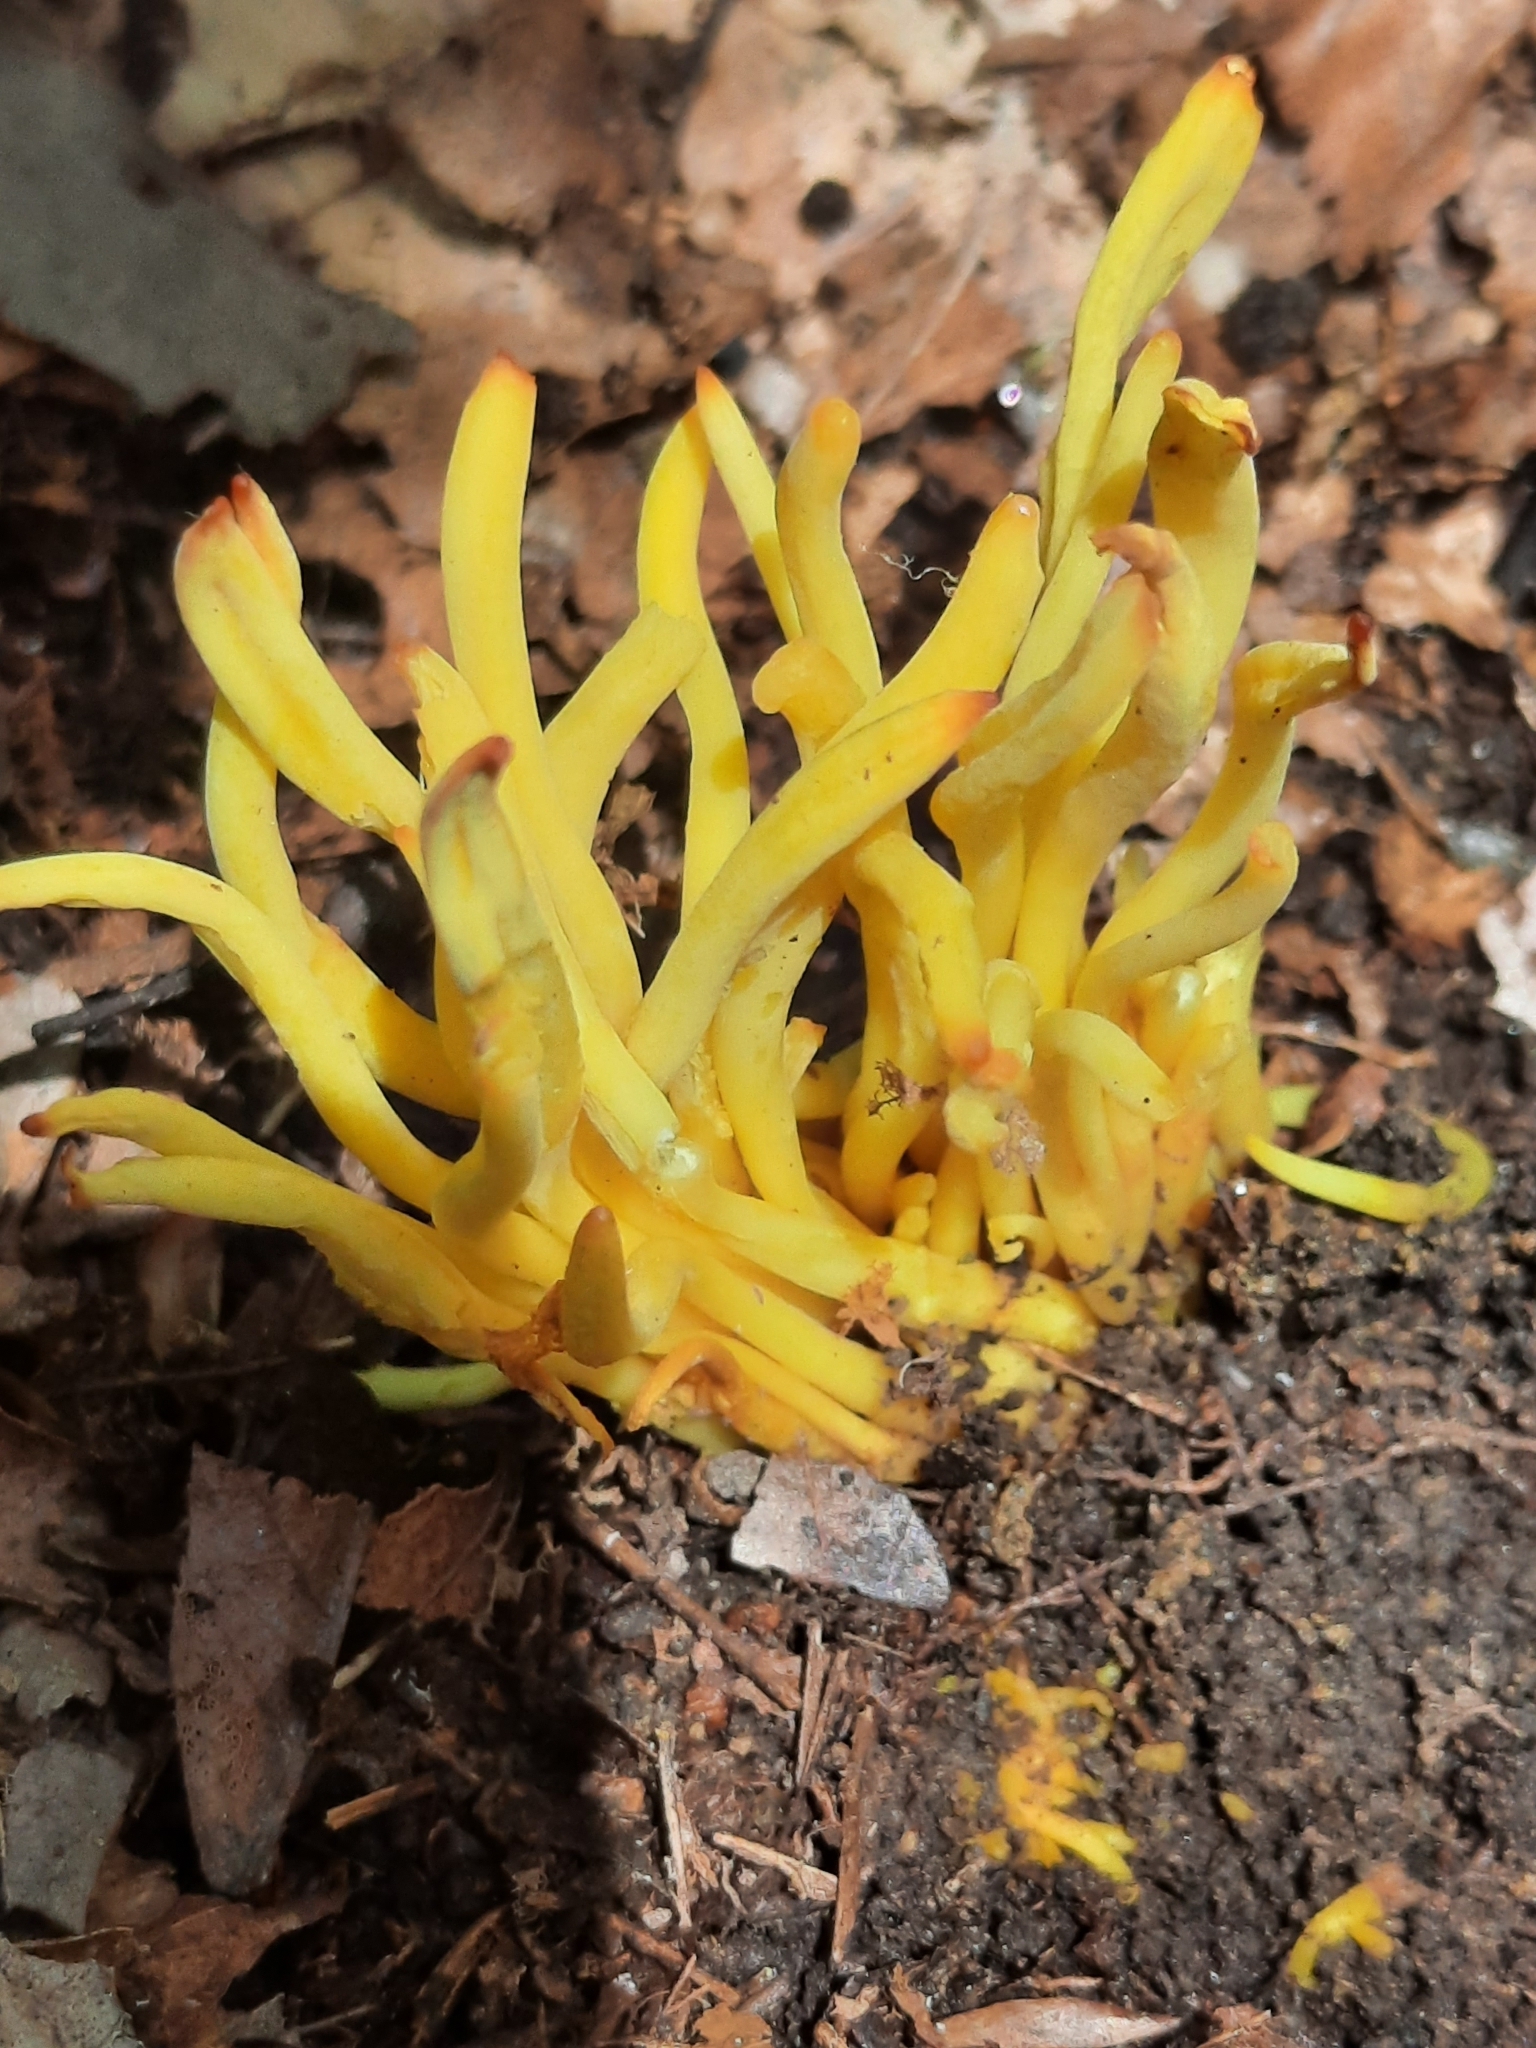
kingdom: Fungi
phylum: Basidiomycota
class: Agaricomycetes
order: Agaricales
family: Clavariaceae
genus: Clavulinopsis
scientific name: Clavulinopsis fusiformis
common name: Golden spindles
